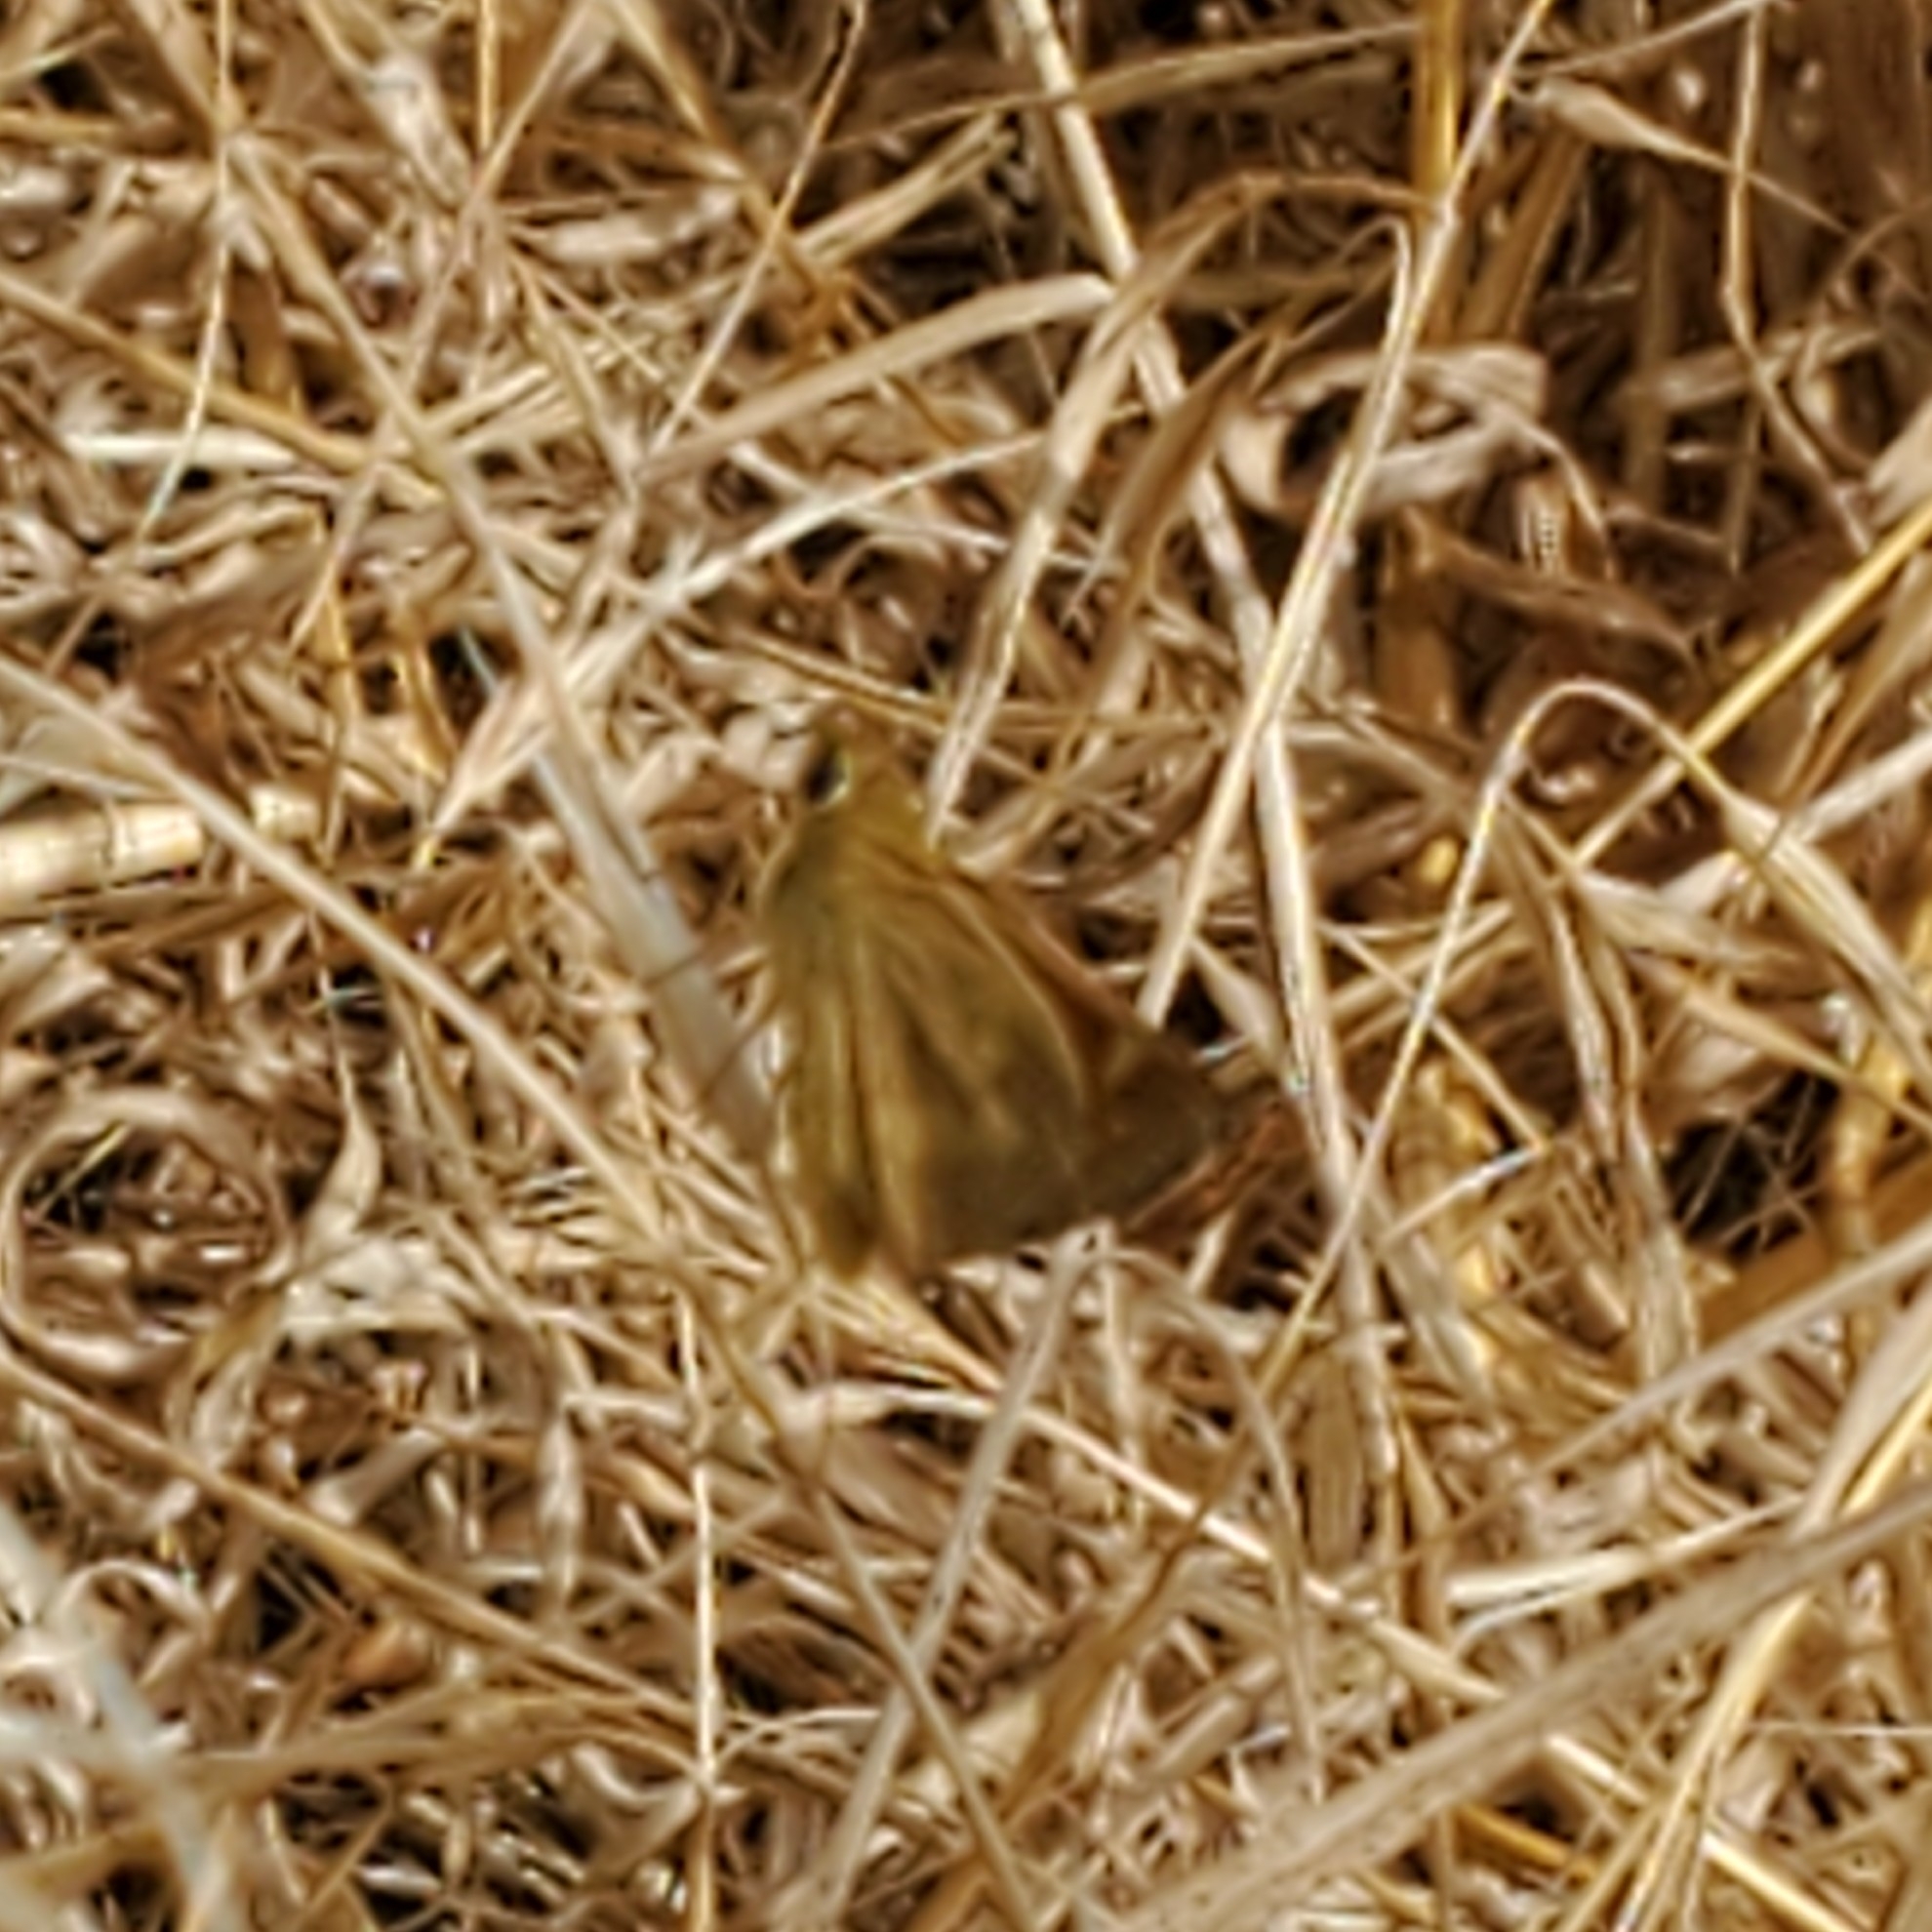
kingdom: Animalia
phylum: Arthropoda
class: Insecta
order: Lepidoptera
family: Hesperiidae
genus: Ochlodes
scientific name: Ochlodes sylvanoides
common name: Woodland skipper
